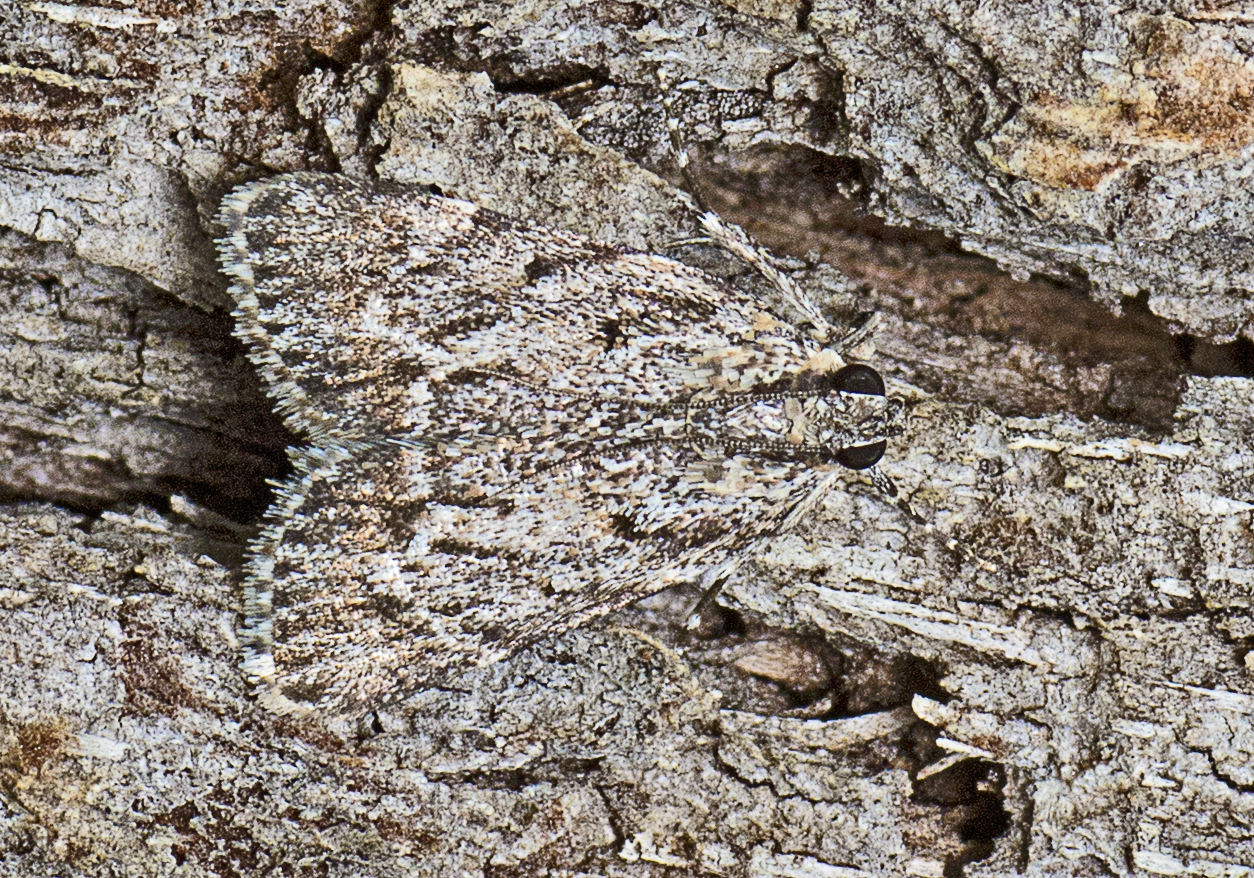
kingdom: Animalia
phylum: Arthropoda
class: Insecta
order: Lepidoptera
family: Pyralidae
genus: Spectrotrota
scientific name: Spectrotrota fimbrialis
